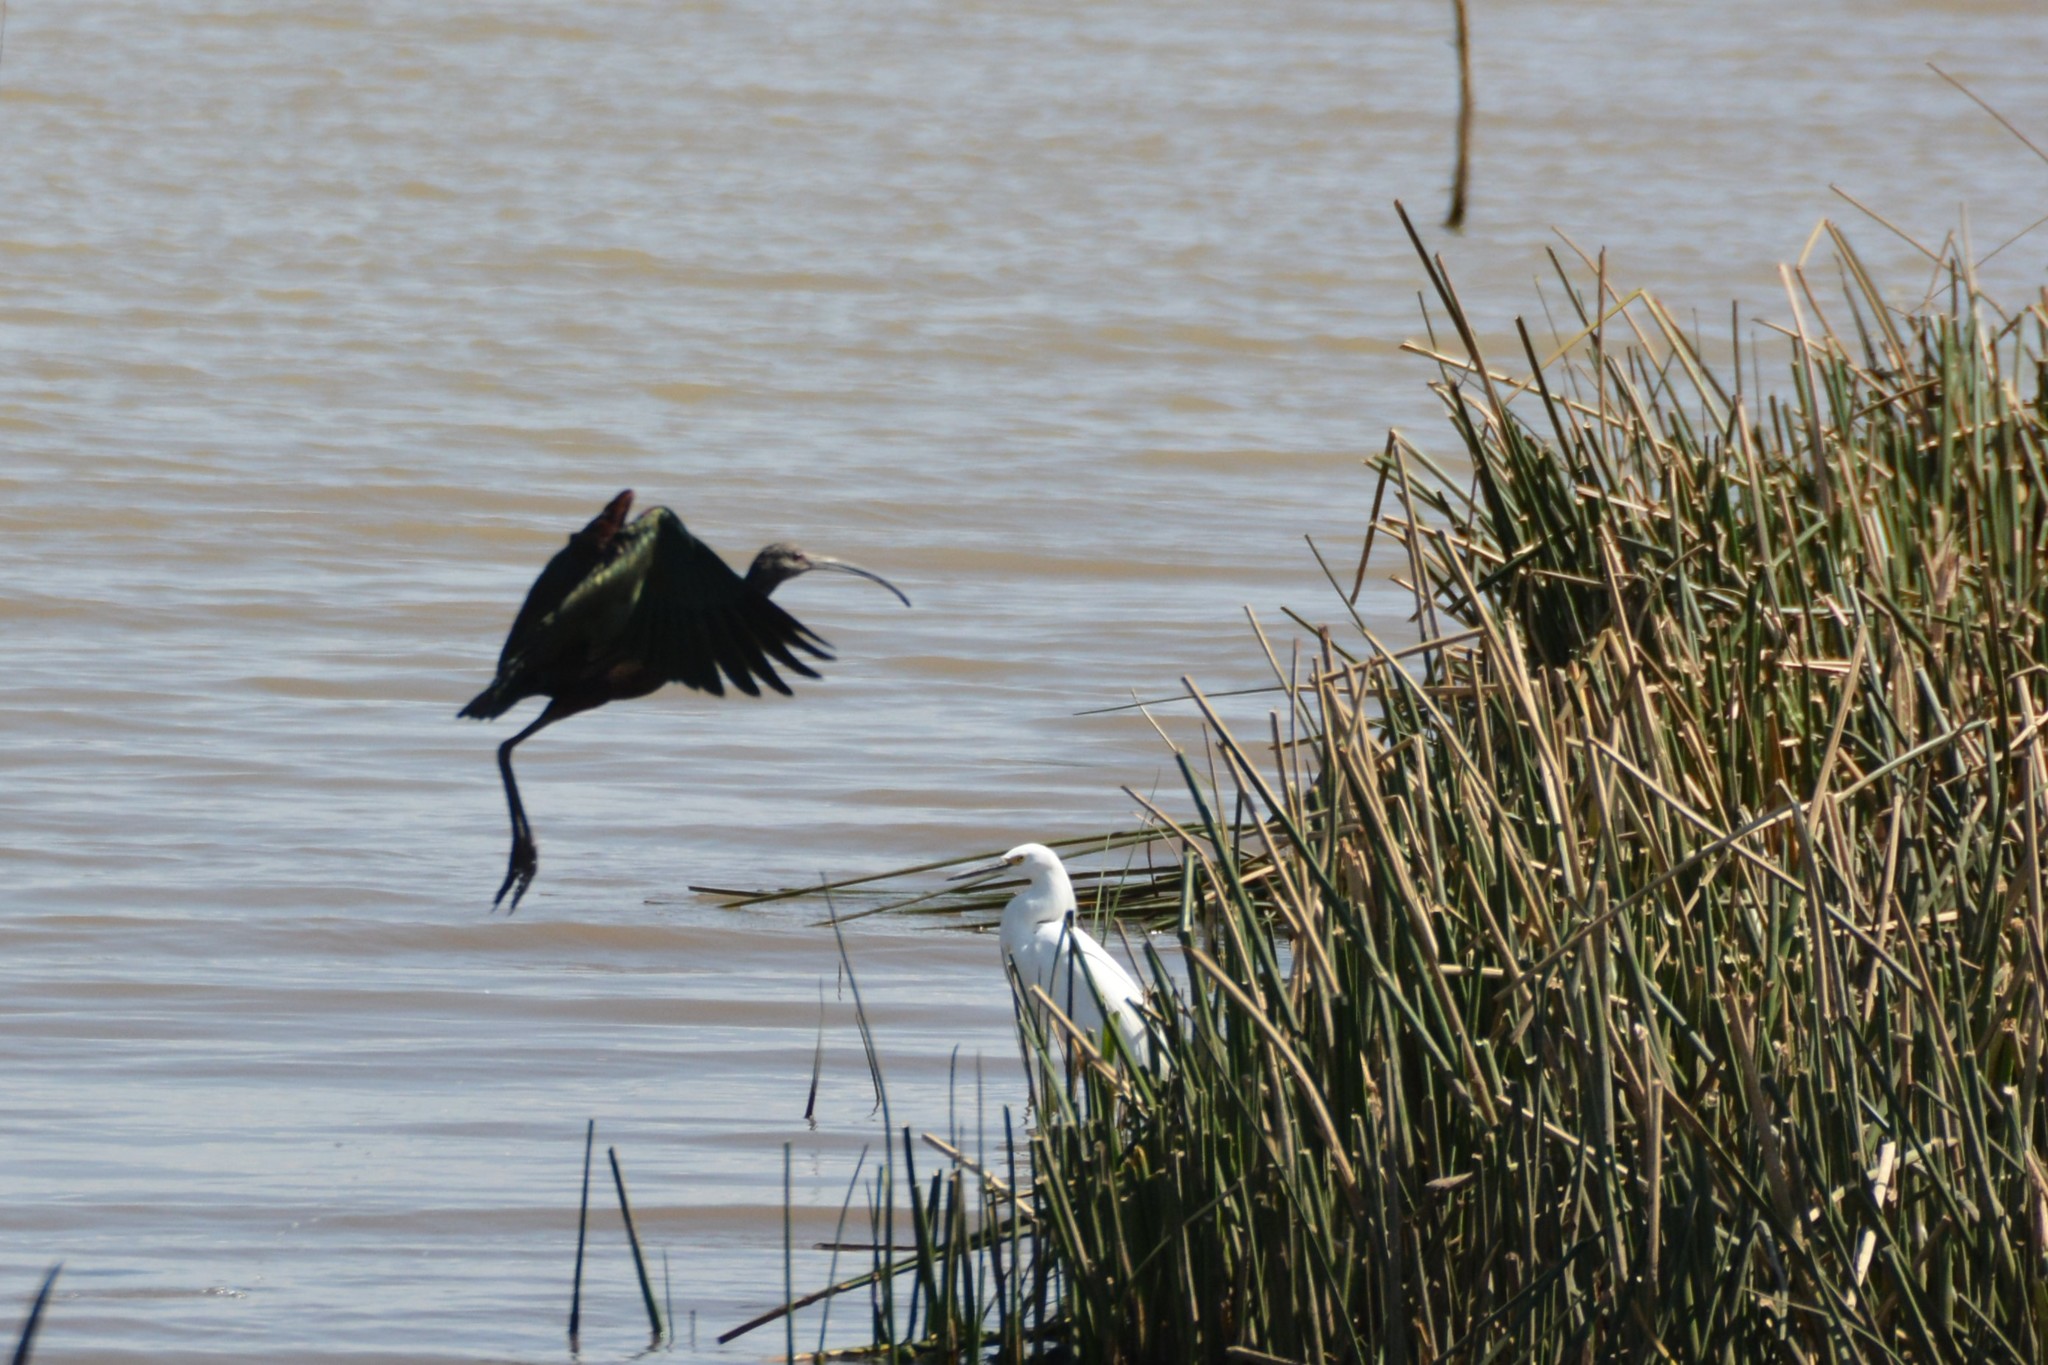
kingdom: Animalia
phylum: Chordata
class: Aves
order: Pelecaniformes
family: Threskiornithidae
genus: Plegadis
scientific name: Plegadis chihi
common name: White-faced ibis
